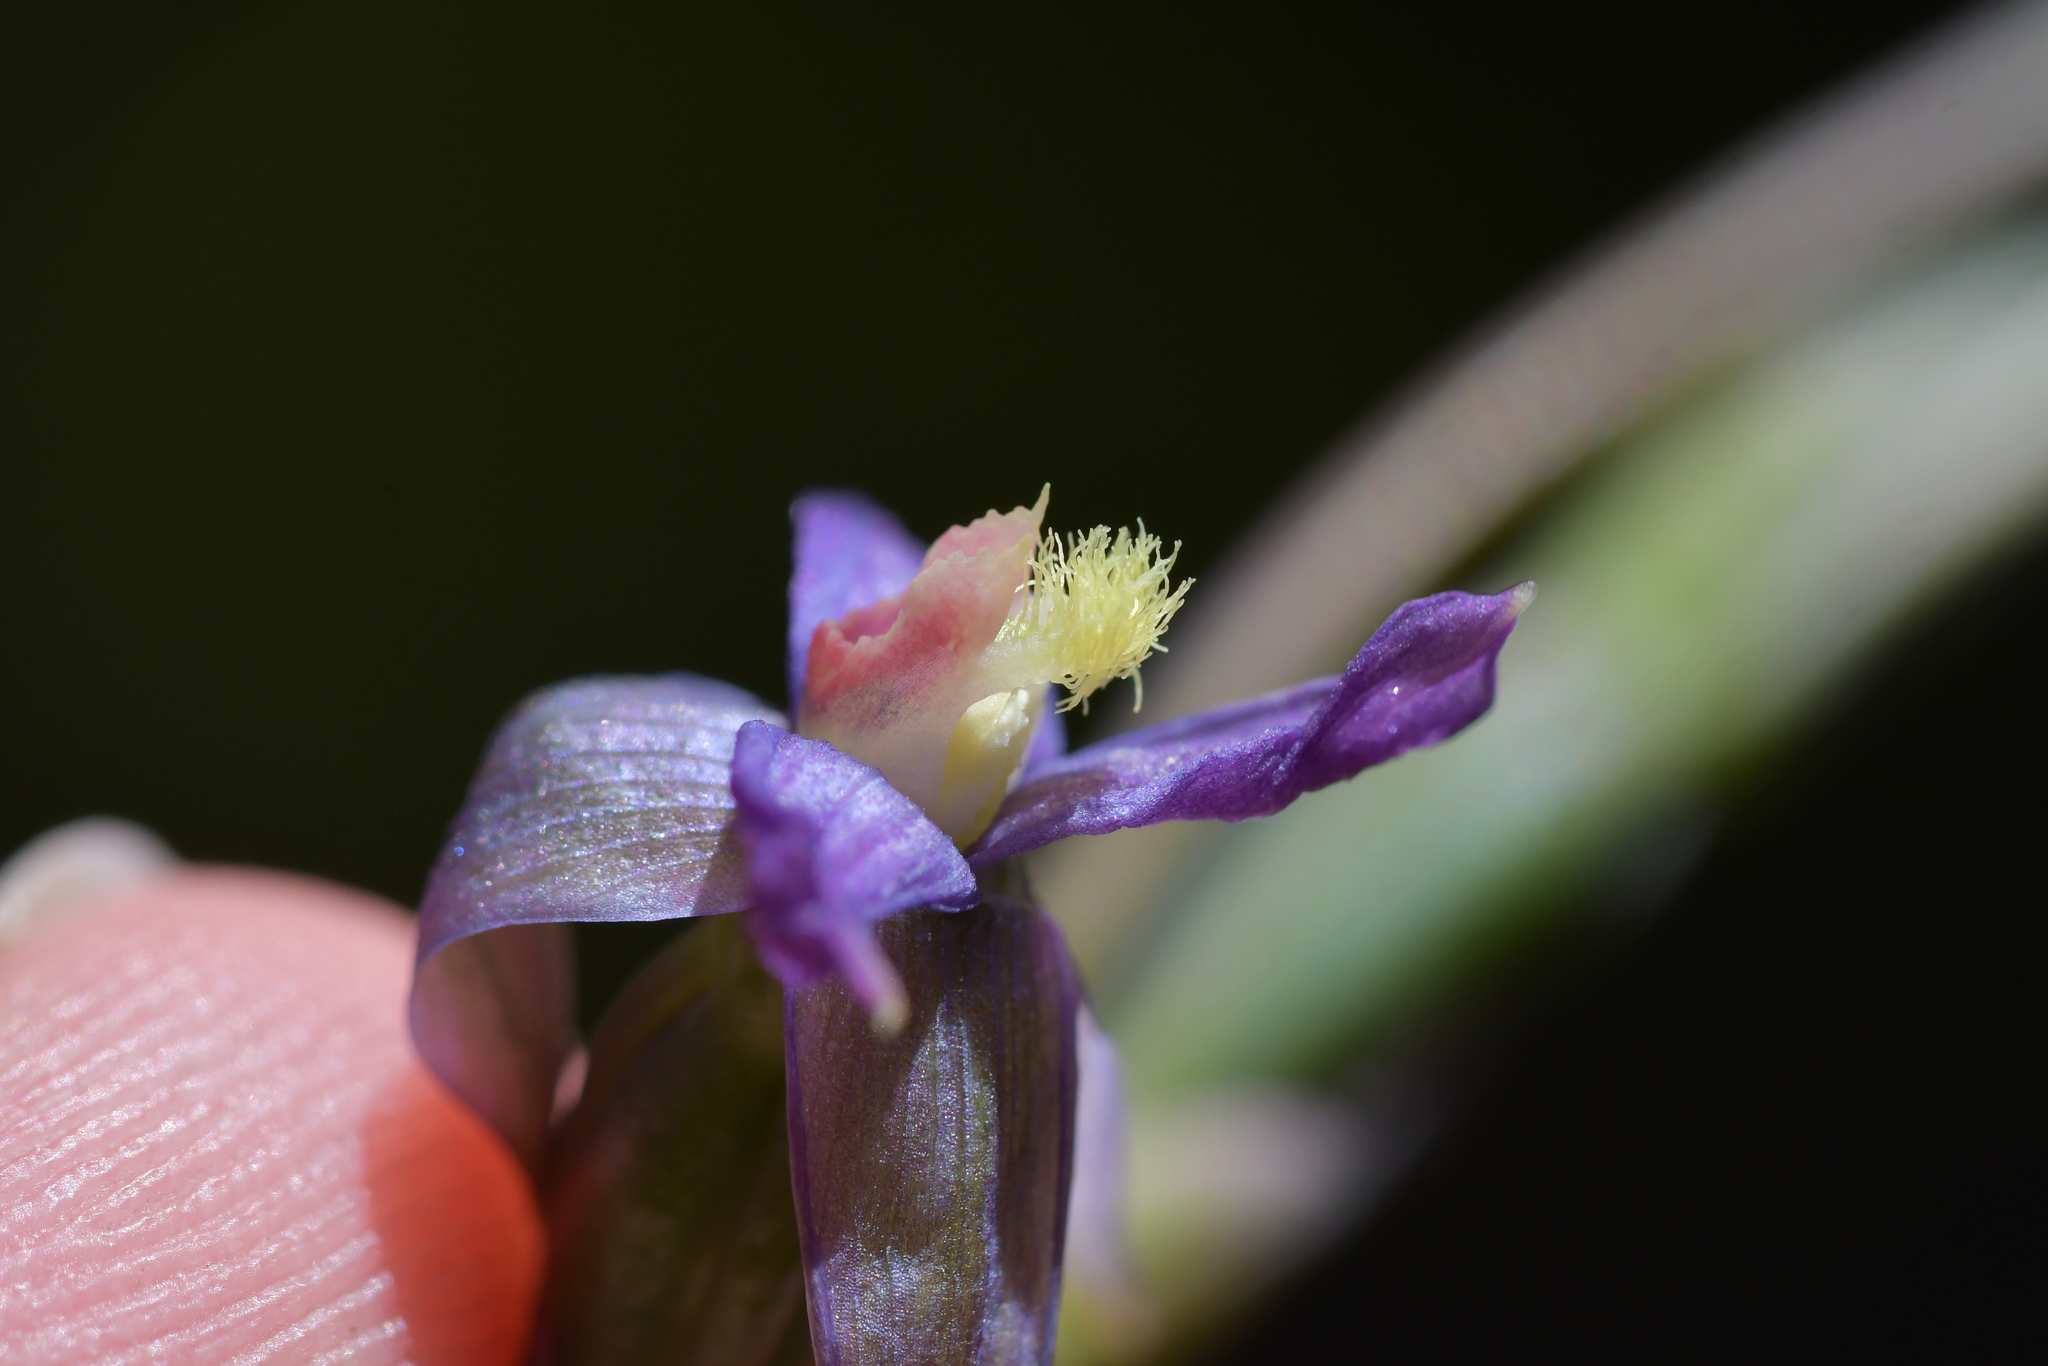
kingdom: Plantae
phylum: Tracheophyta
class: Liliopsida
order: Asparagales
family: Orchidaceae
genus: Thelymitra
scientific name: Thelymitra formosa
